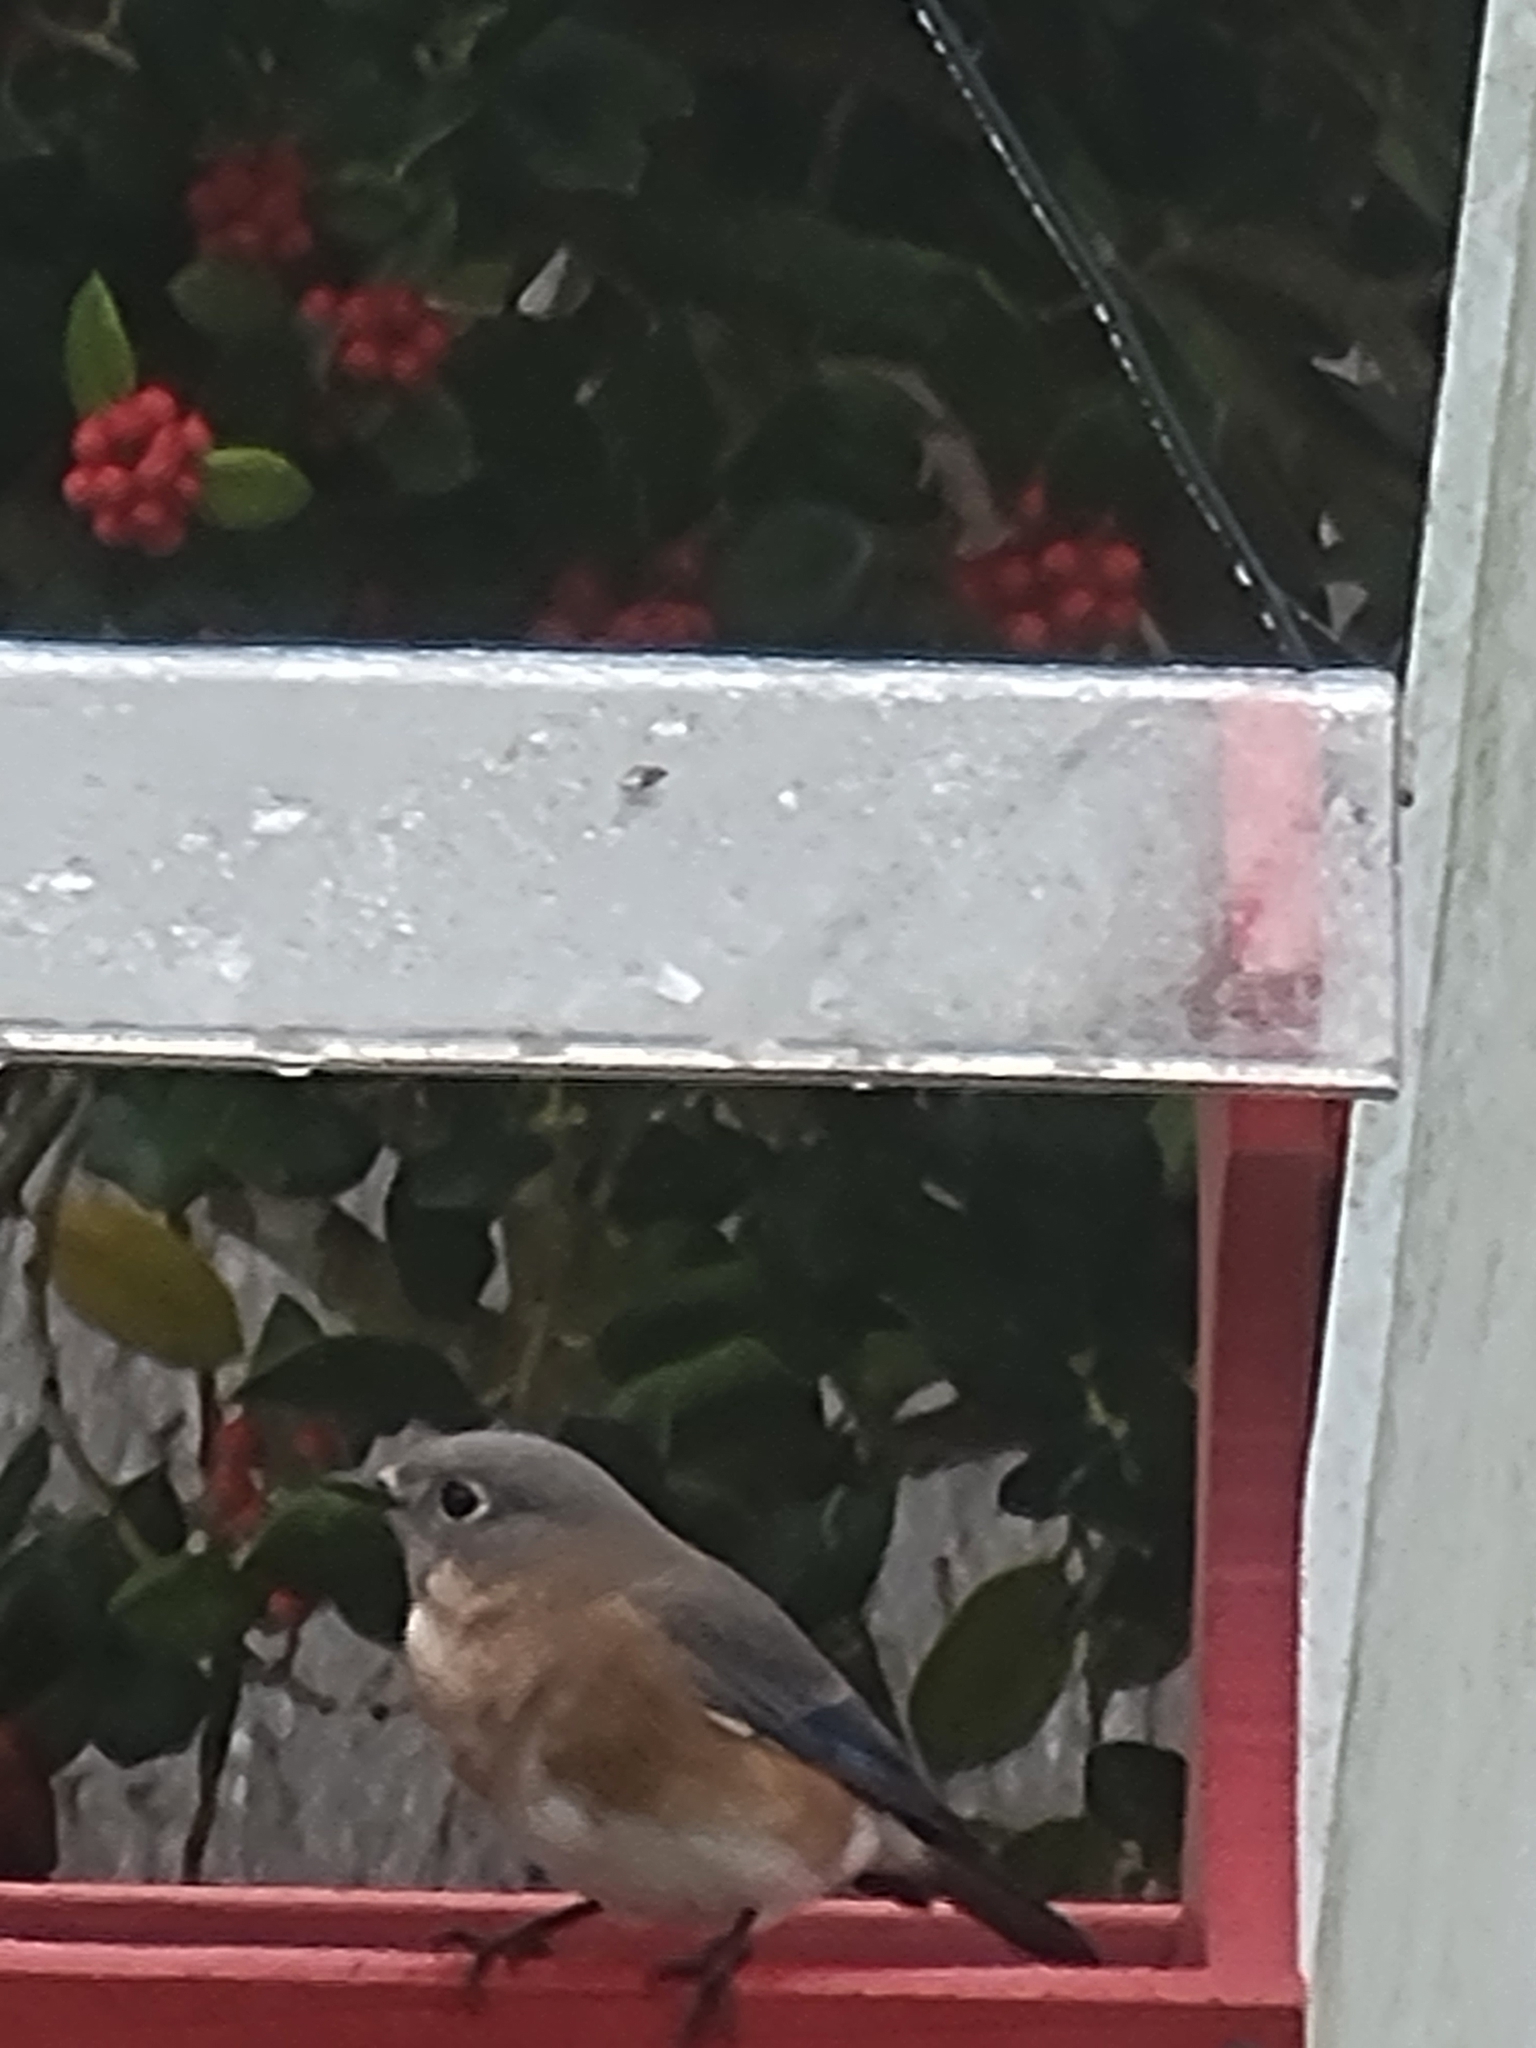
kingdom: Animalia
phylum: Chordata
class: Aves
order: Passeriformes
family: Turdidae
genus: Sialia
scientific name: Sialia sialis
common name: Eastern bluebird
